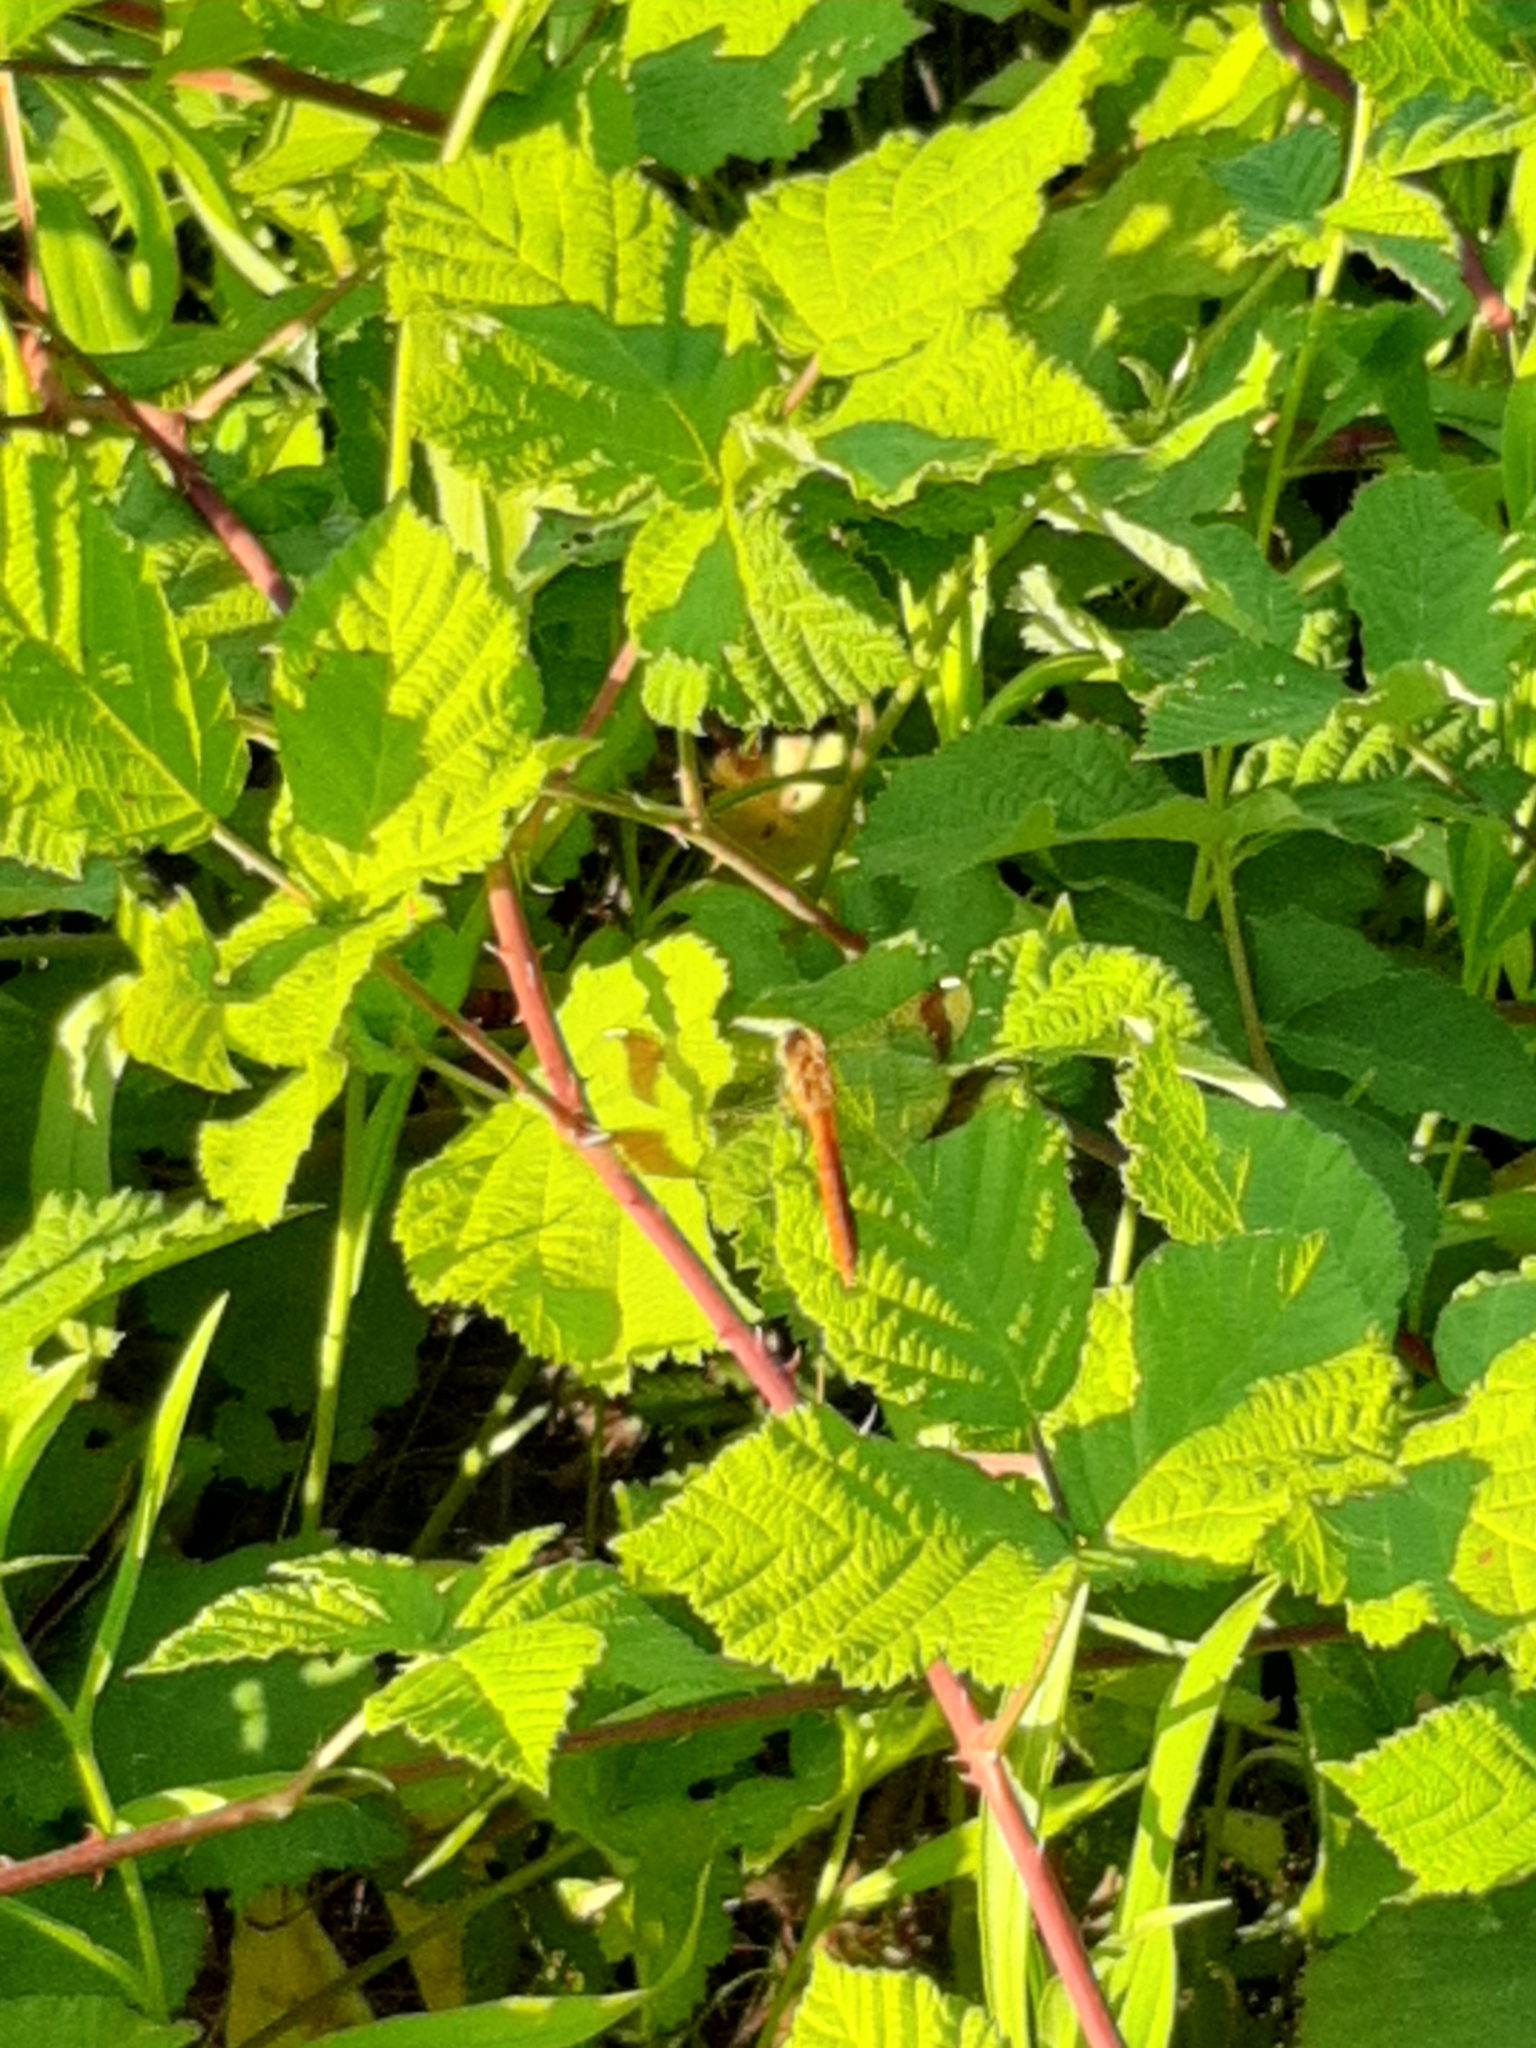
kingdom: Animalia
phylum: Arthropoda
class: Insecta
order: Odonata
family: Libellulidae
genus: Sympetrum
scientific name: Sympetrum pedemontanum
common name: Banded darter
